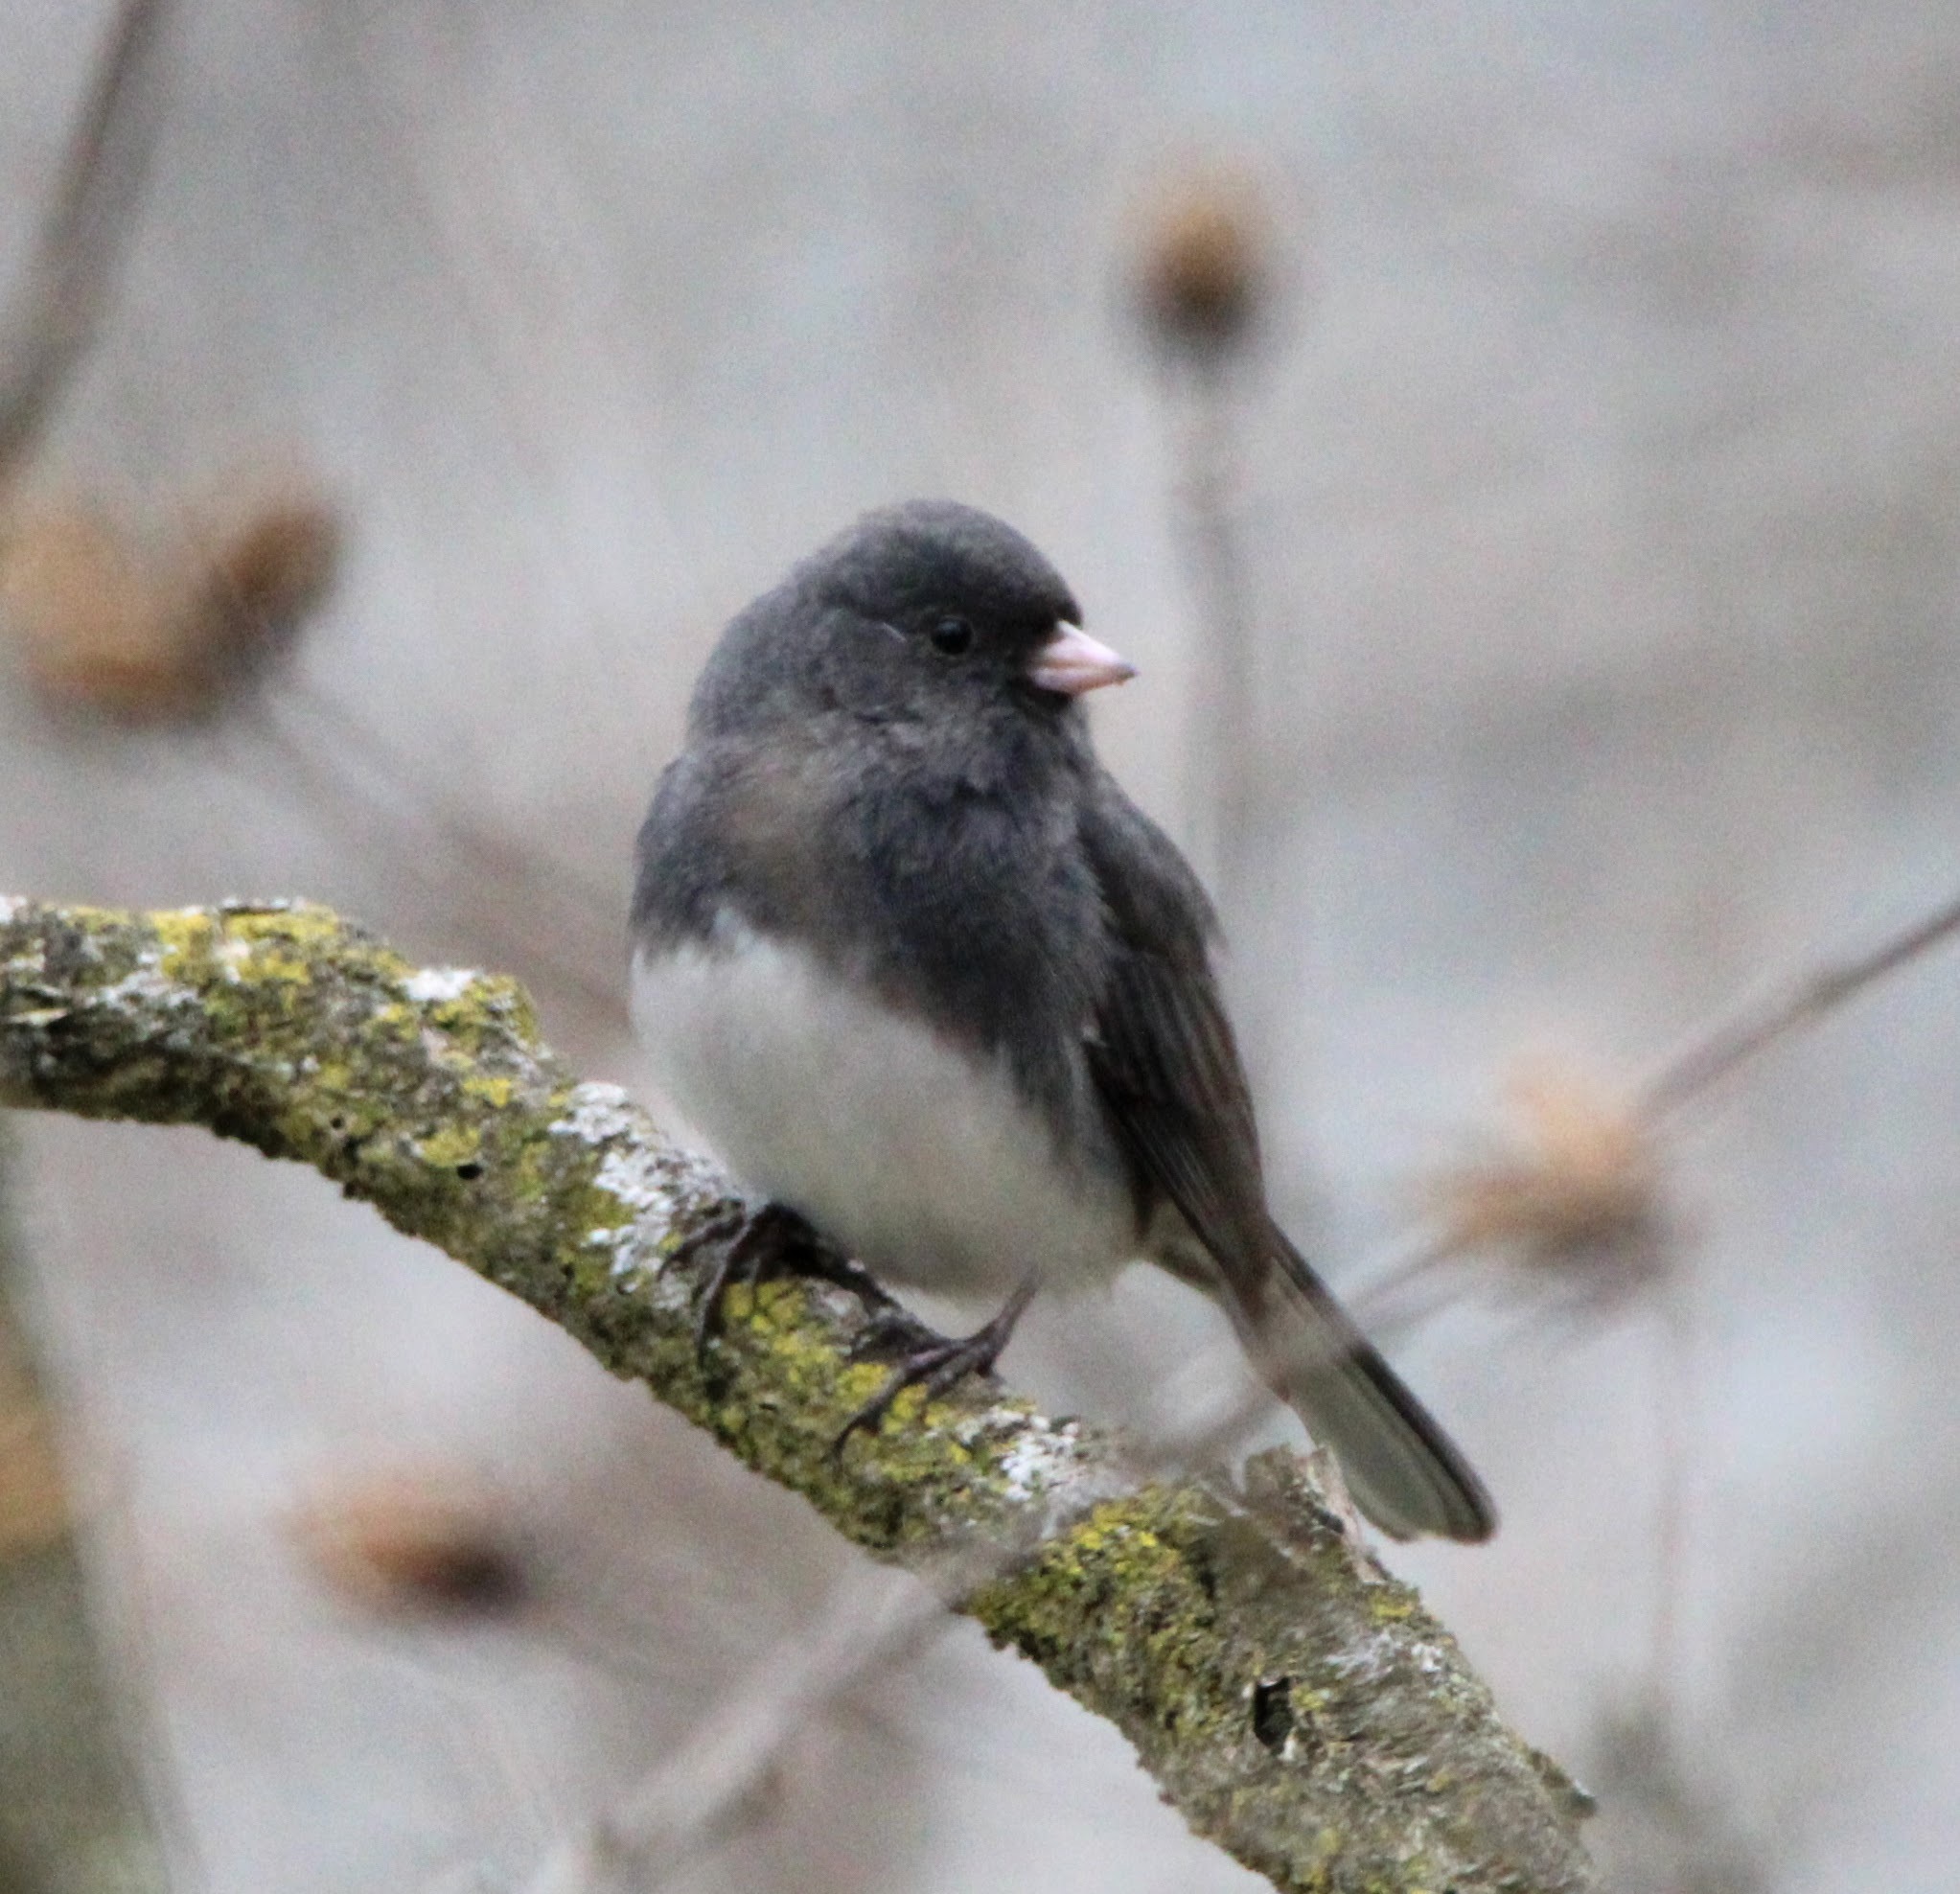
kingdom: Animalia
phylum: Chordata
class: Aves
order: Passeriformes
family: Passerellidae
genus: Junco
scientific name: Junco hyemalis
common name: Dark-eyed junco
